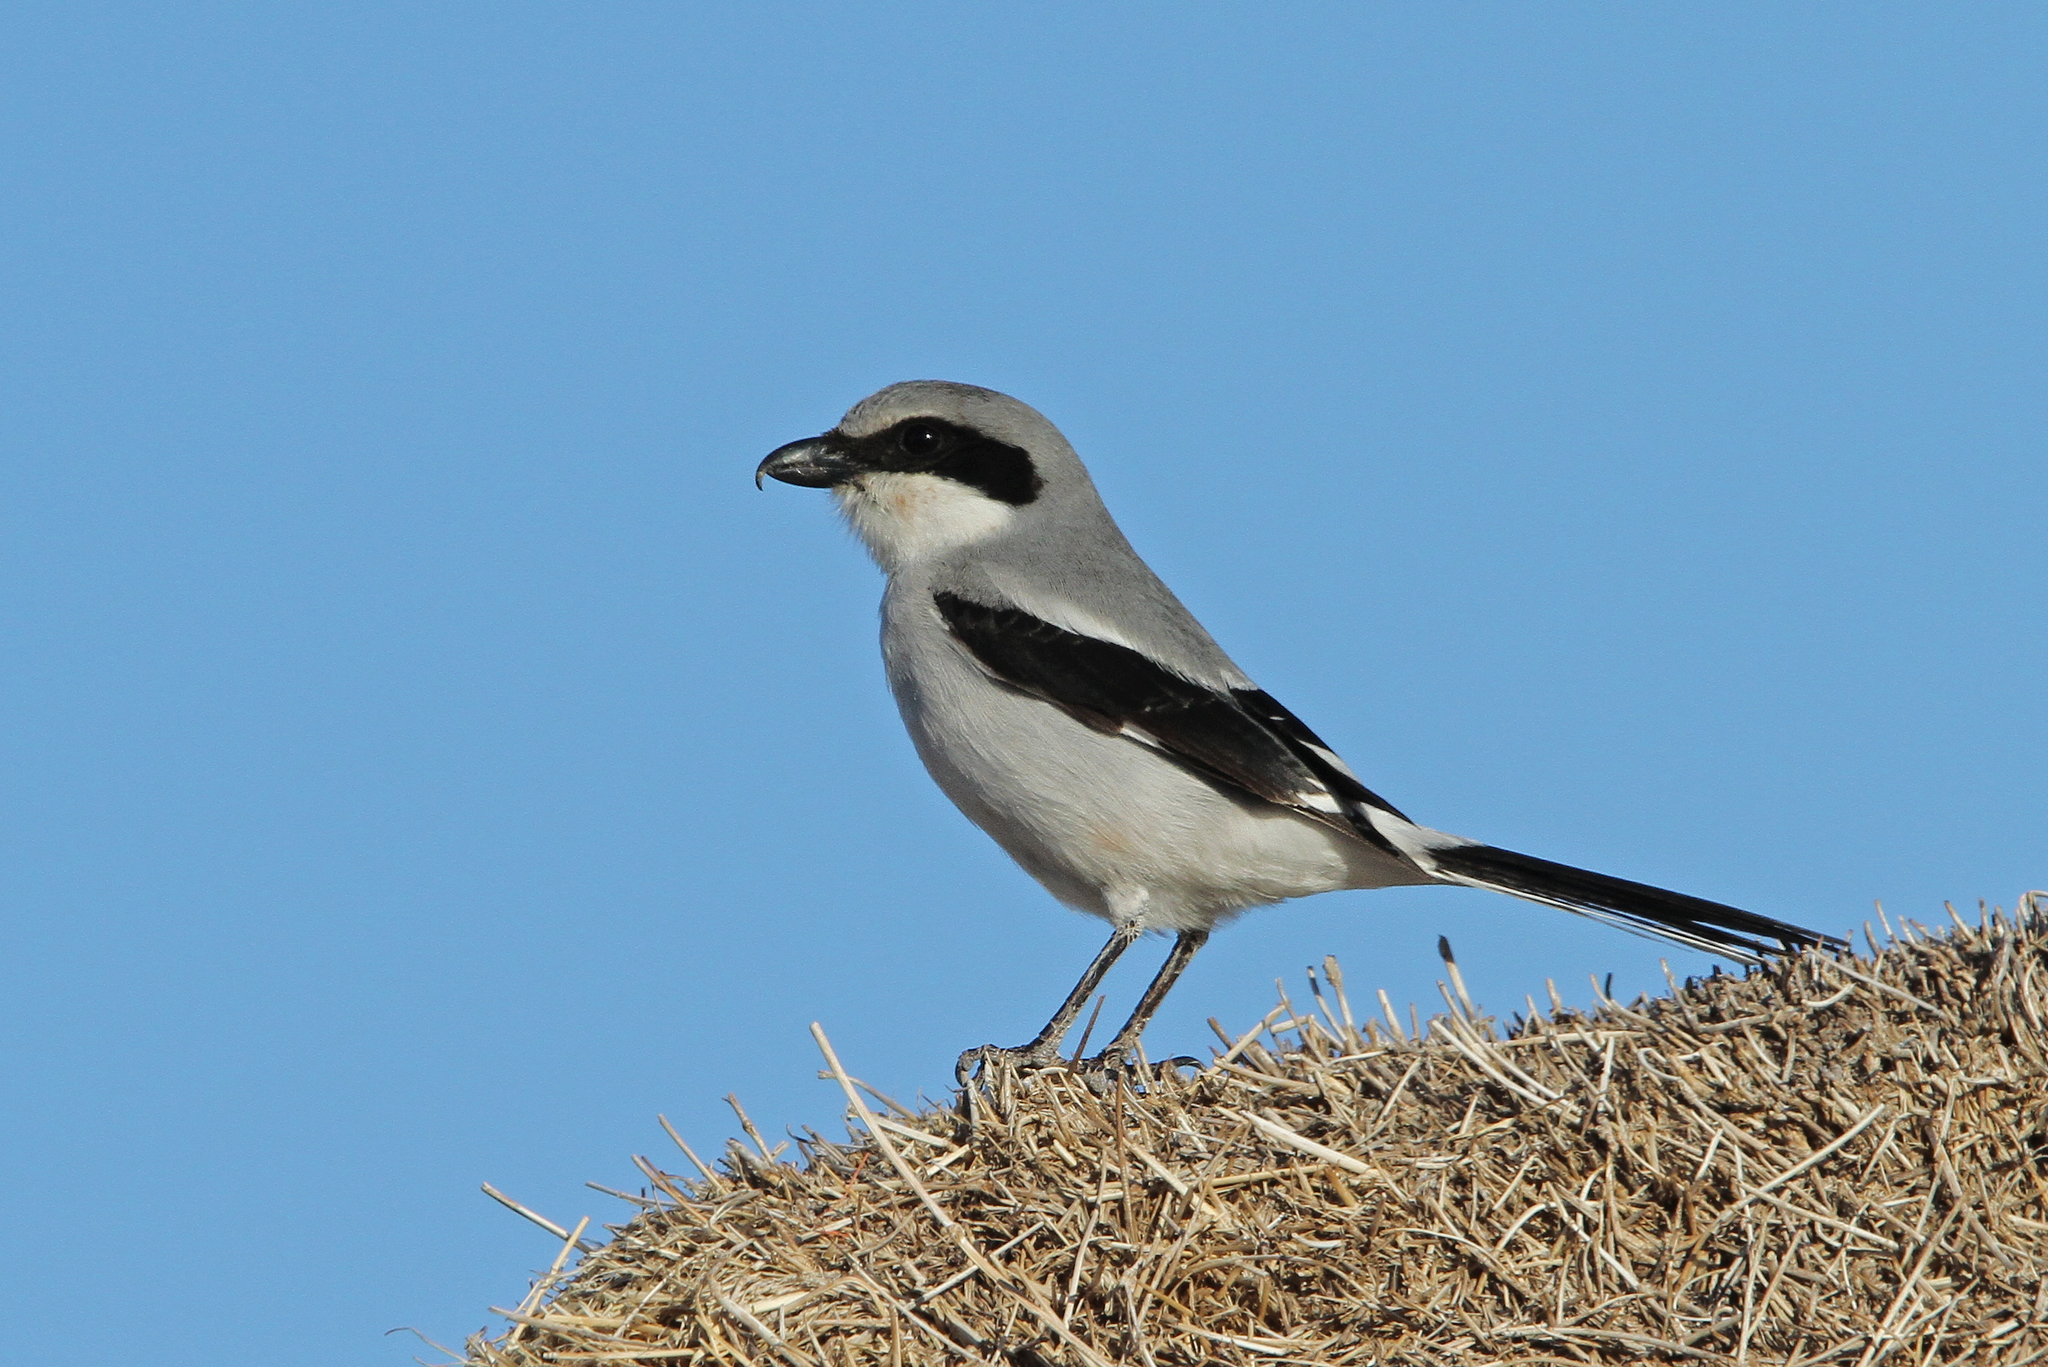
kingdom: Animalia
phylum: Chordata
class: Aves
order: Passeriformes
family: Laniidae
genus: Lanius
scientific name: Lanius ludovicianus
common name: Loggerhead shrike
